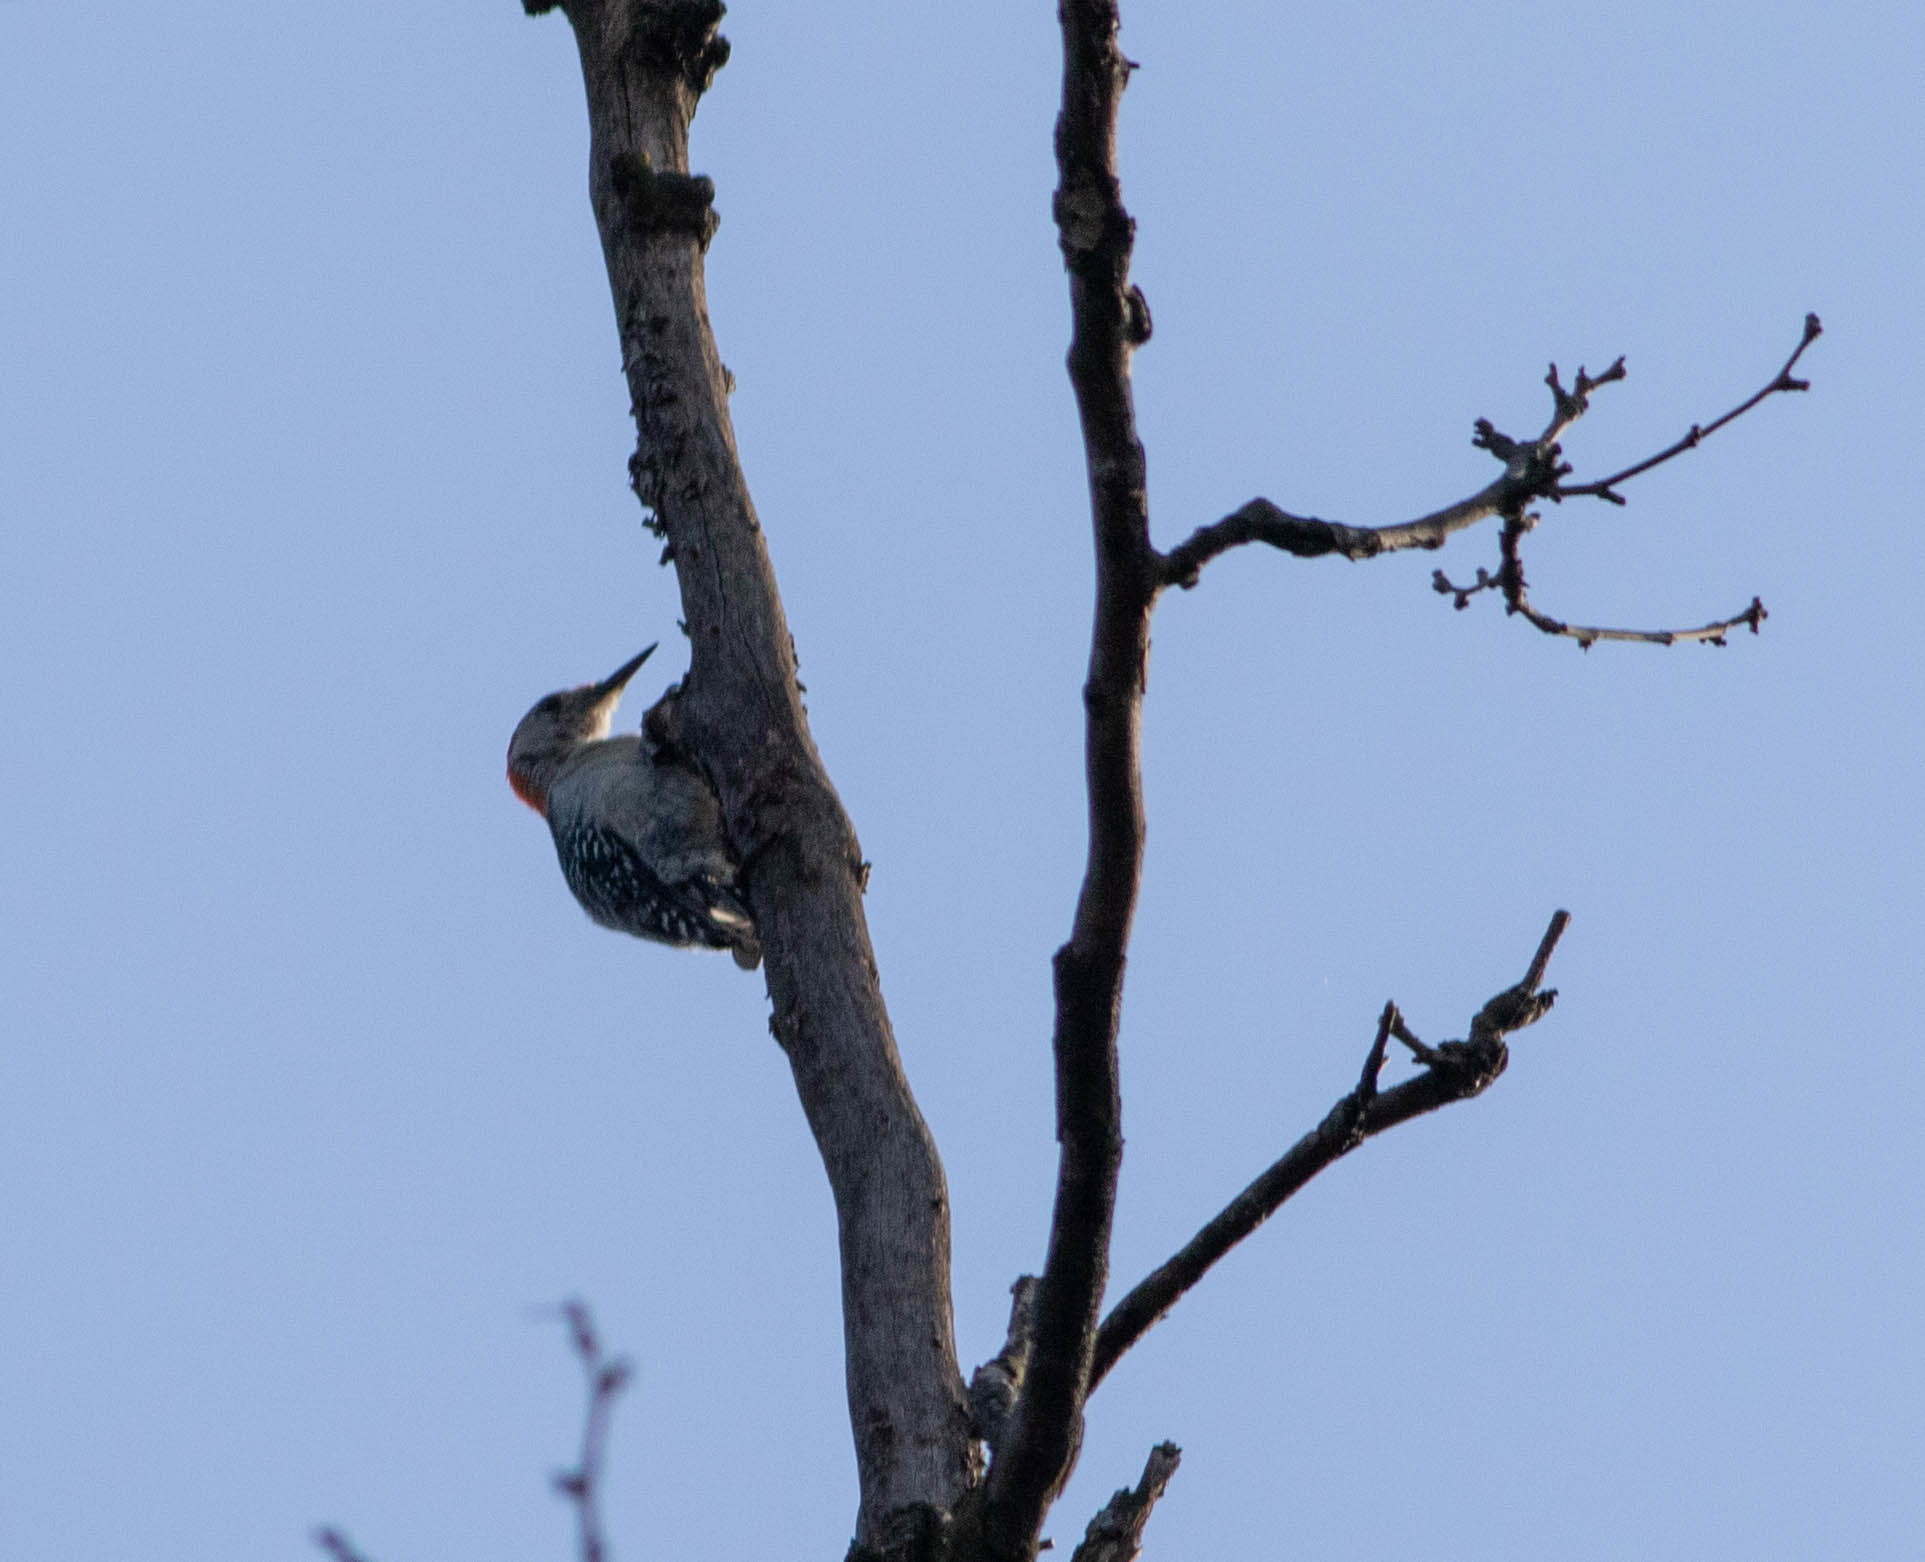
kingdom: Animalia
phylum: Chordata
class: Aves
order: Piciformes
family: Picidae
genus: Melanerpes
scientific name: Melanerpes carolinus
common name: Red-bellied woodpecker
